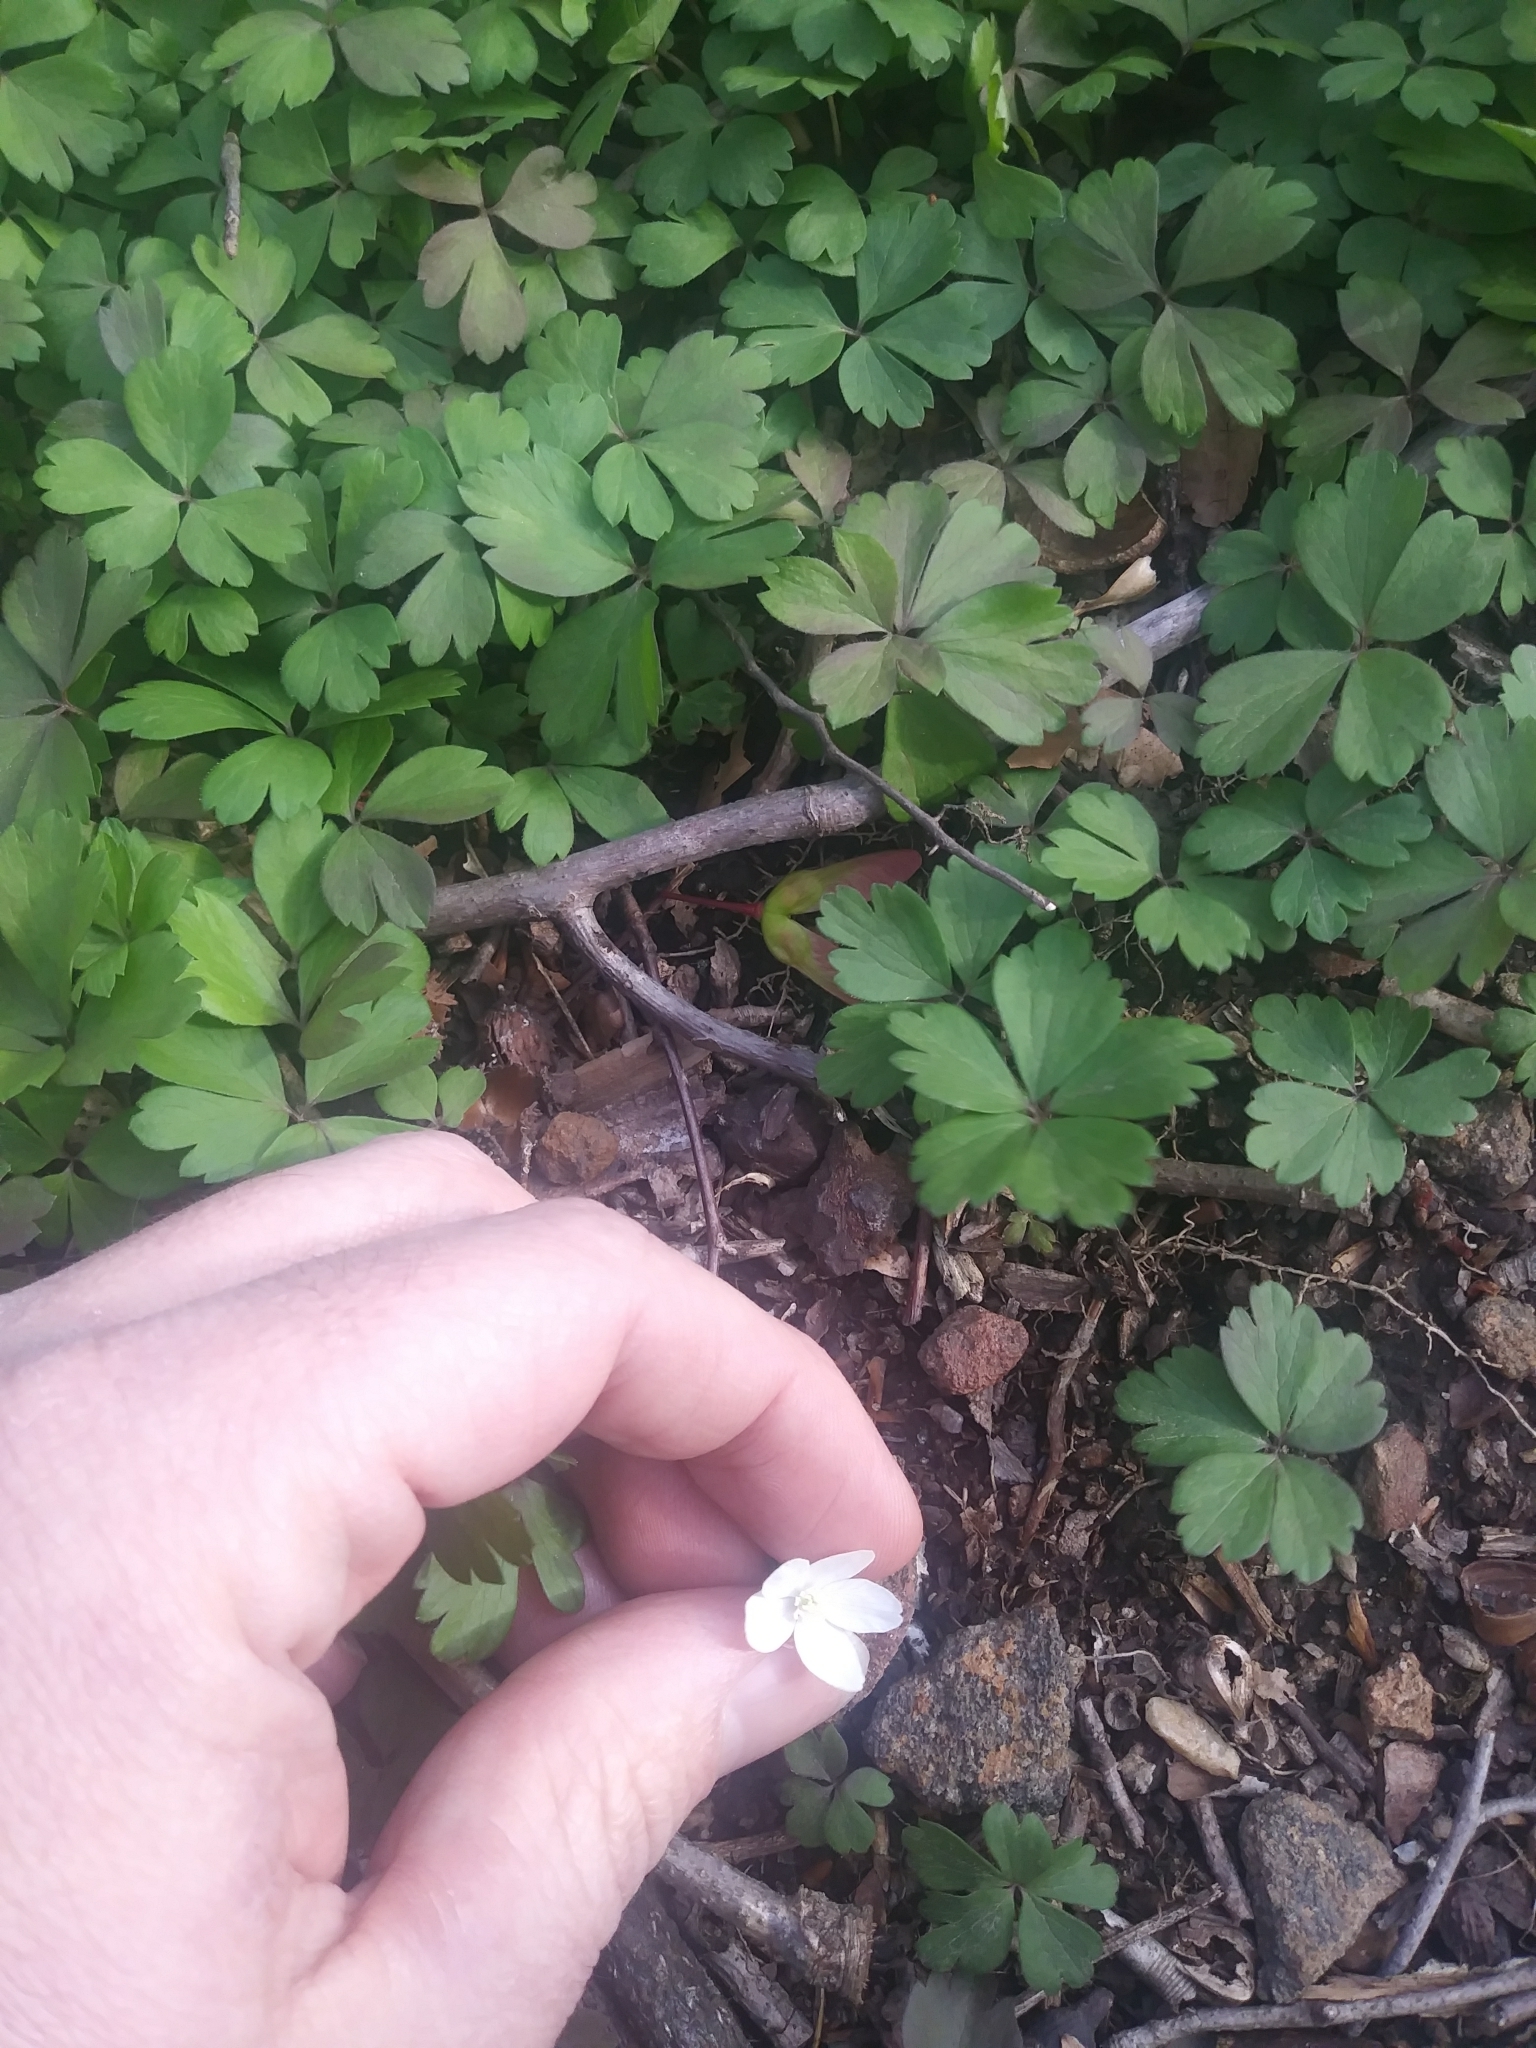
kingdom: Plantae
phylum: Tracheophyta
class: Magnoliopsida
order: Ranunculales
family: Ranunculaceae
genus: Anemone
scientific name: Anemone quinquefolia
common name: Wood anemone
